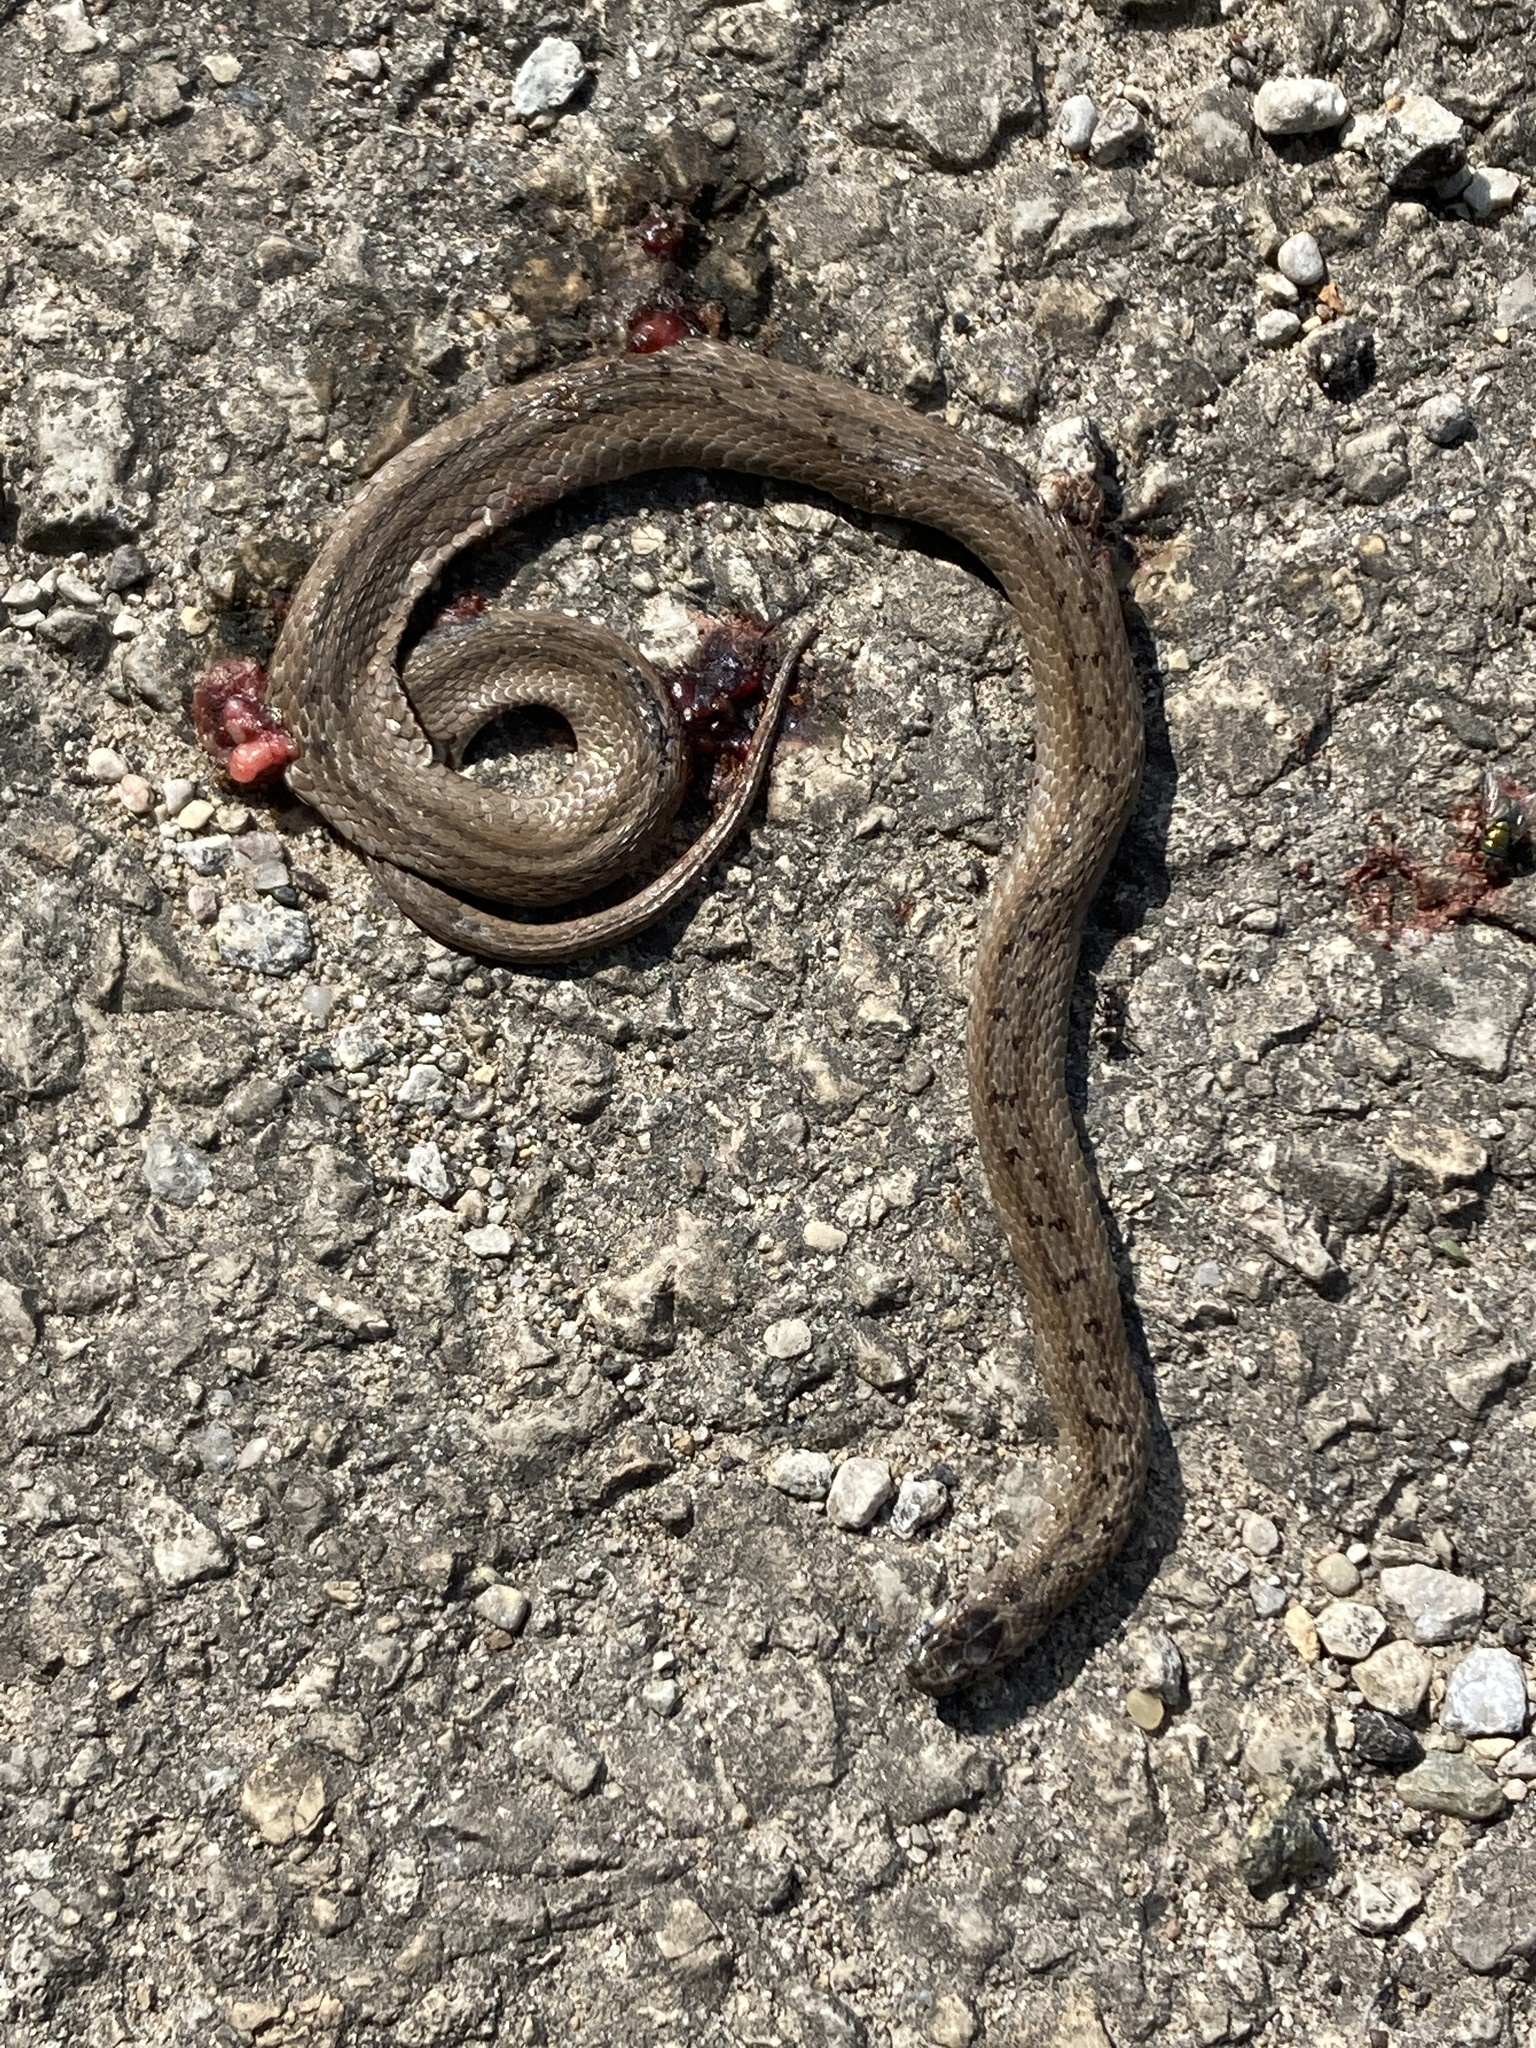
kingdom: Animalia
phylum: Chordata
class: Squamata
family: Colubridae
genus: Storeria
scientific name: Storeria dekayi
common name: (dekay’s) brown snake
